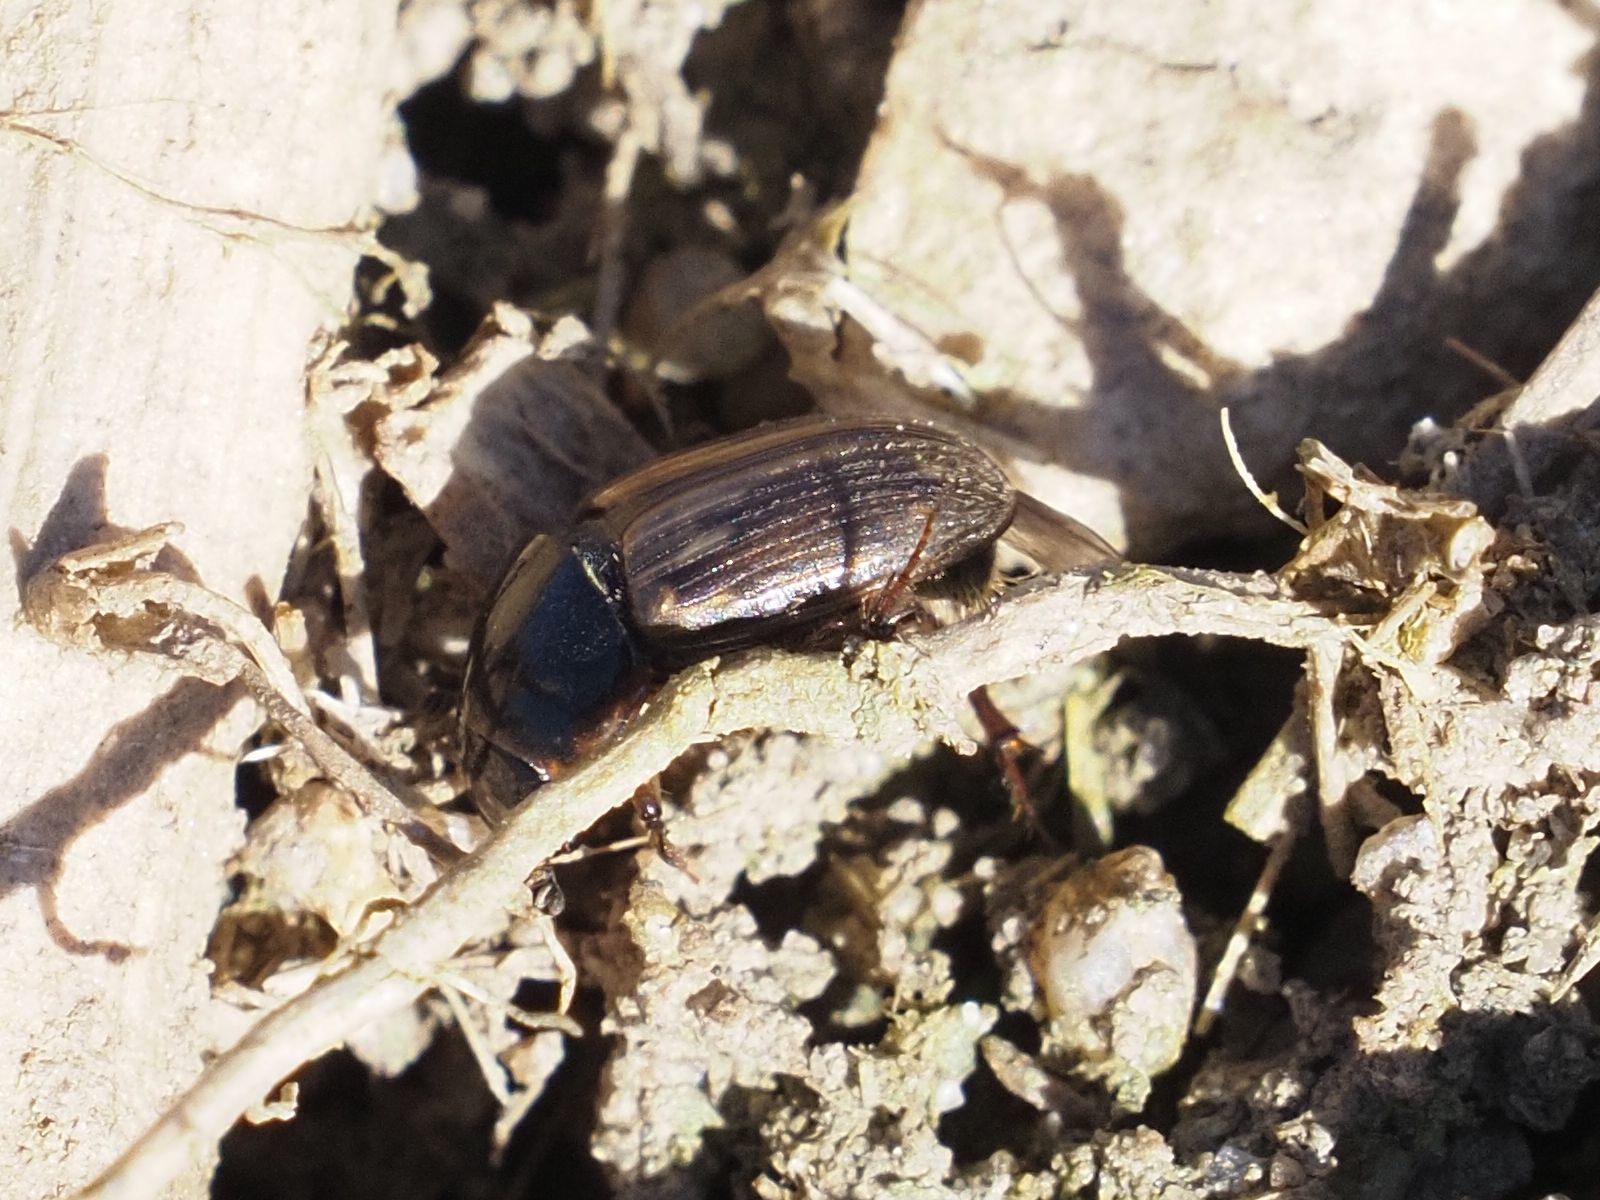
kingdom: Animalia
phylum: Arthropoda
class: Insecta
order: Coleoptera
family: Scarabaeidae
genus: Melinopterus
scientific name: Melinopterus prodromus
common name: Spring small dung beetle
